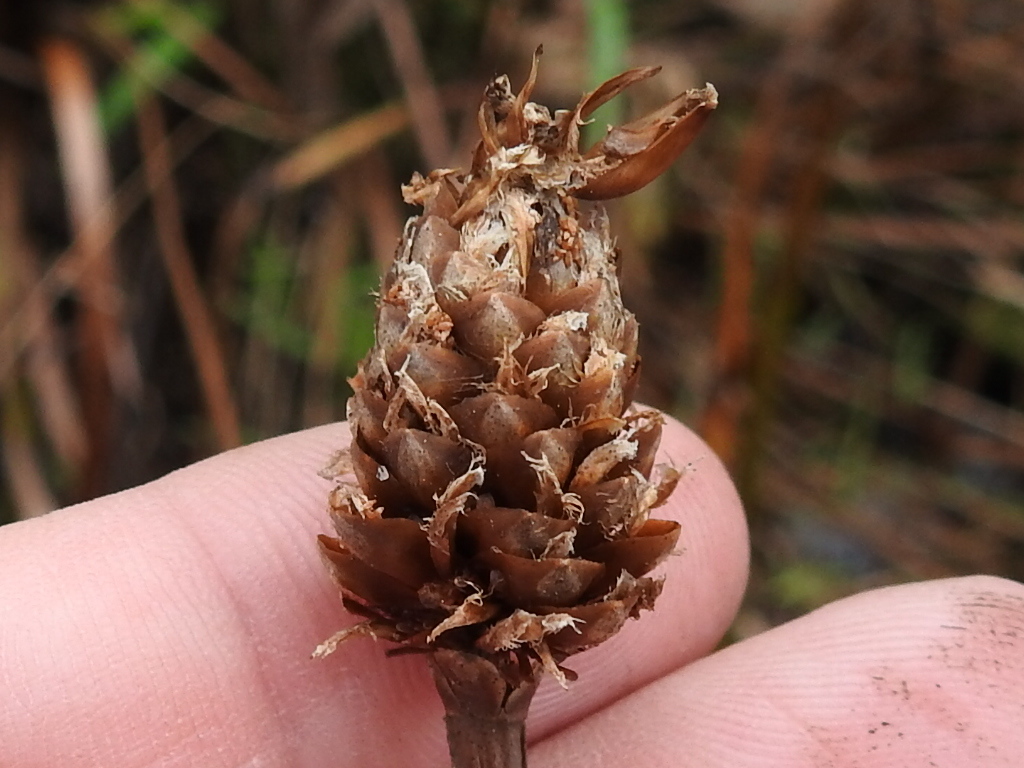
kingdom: Plantae
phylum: Tracheophyta
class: Liliopsida
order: Poales
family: Xyridaceae
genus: Xyris
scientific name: Xyris fimbriata
